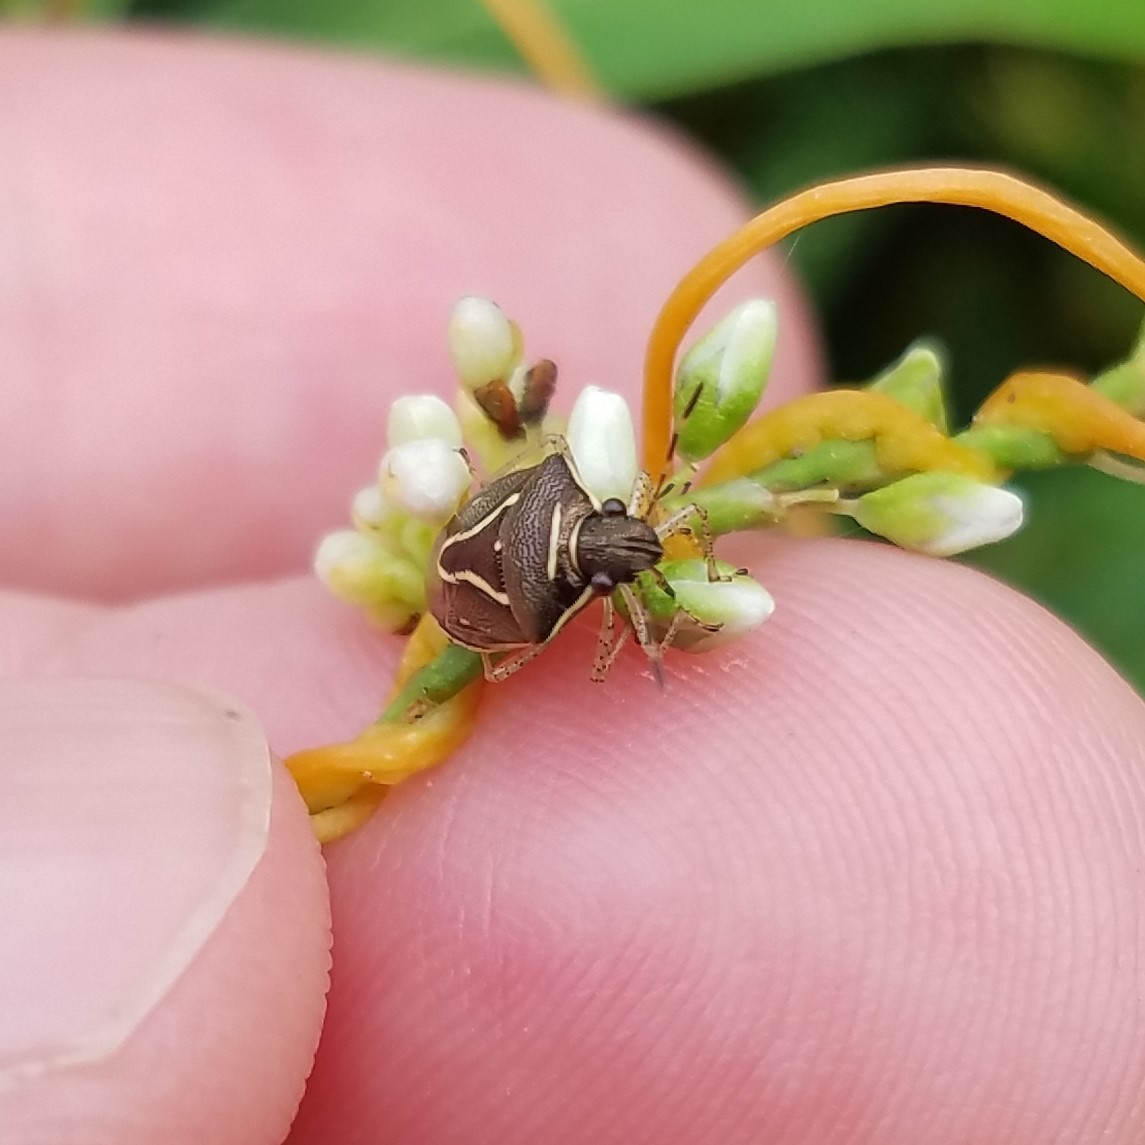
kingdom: Animalia
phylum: Arthropoda
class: Insecta
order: Hemiptera
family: Pentatomidae
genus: Mormidea
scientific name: Mormidea lugens
